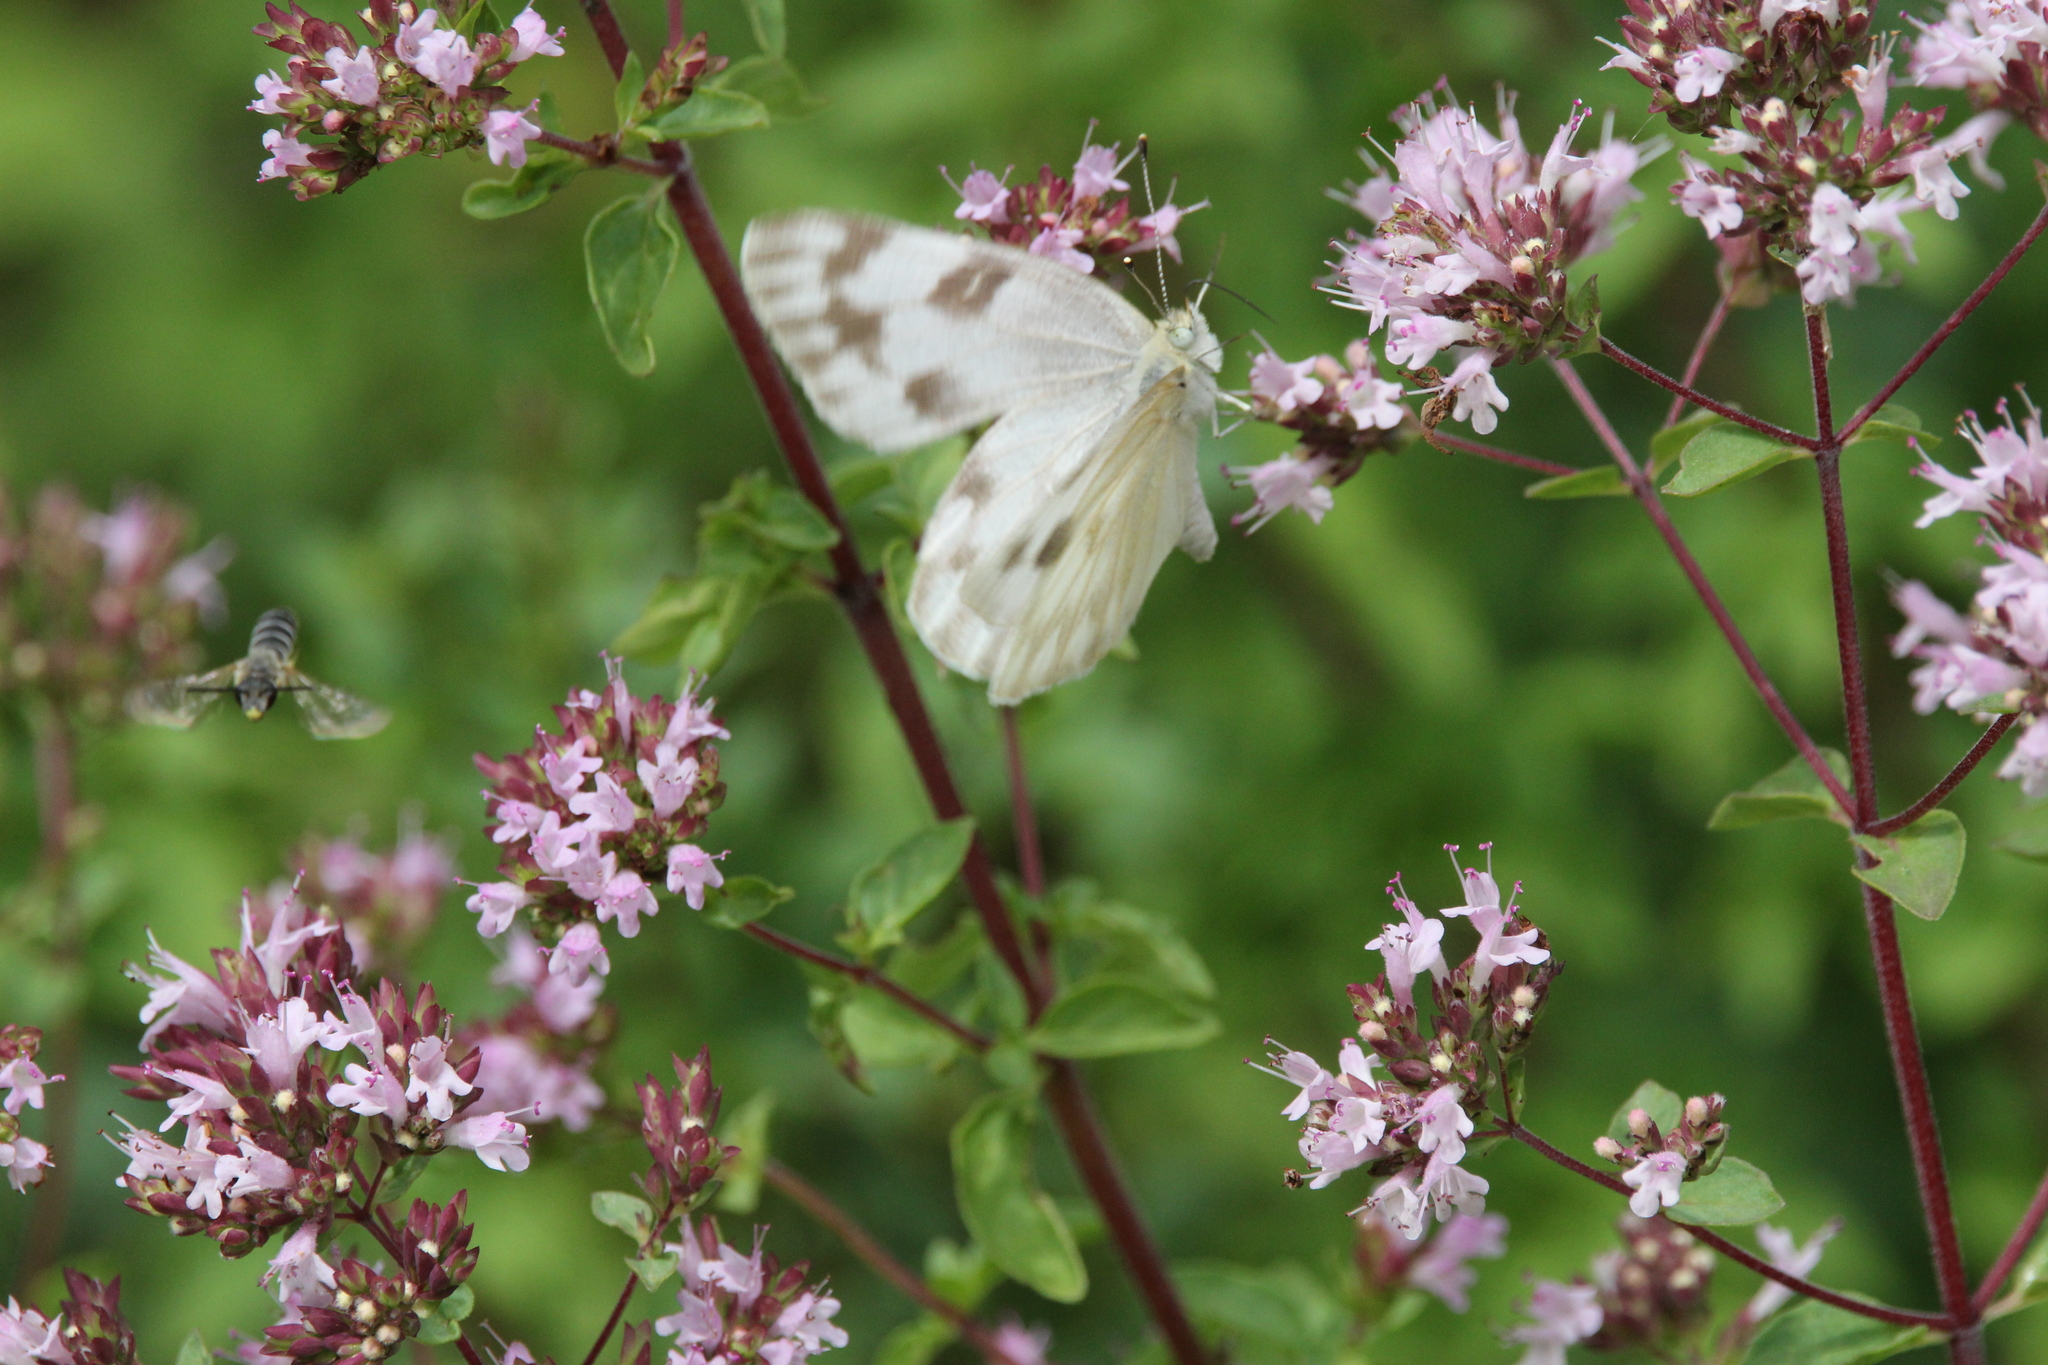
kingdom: Animalia
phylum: Arthropoda
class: Insecta
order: Lepidoptera
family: Pieridae
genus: Pontia
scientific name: Pontia protodice
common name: Checkered white
